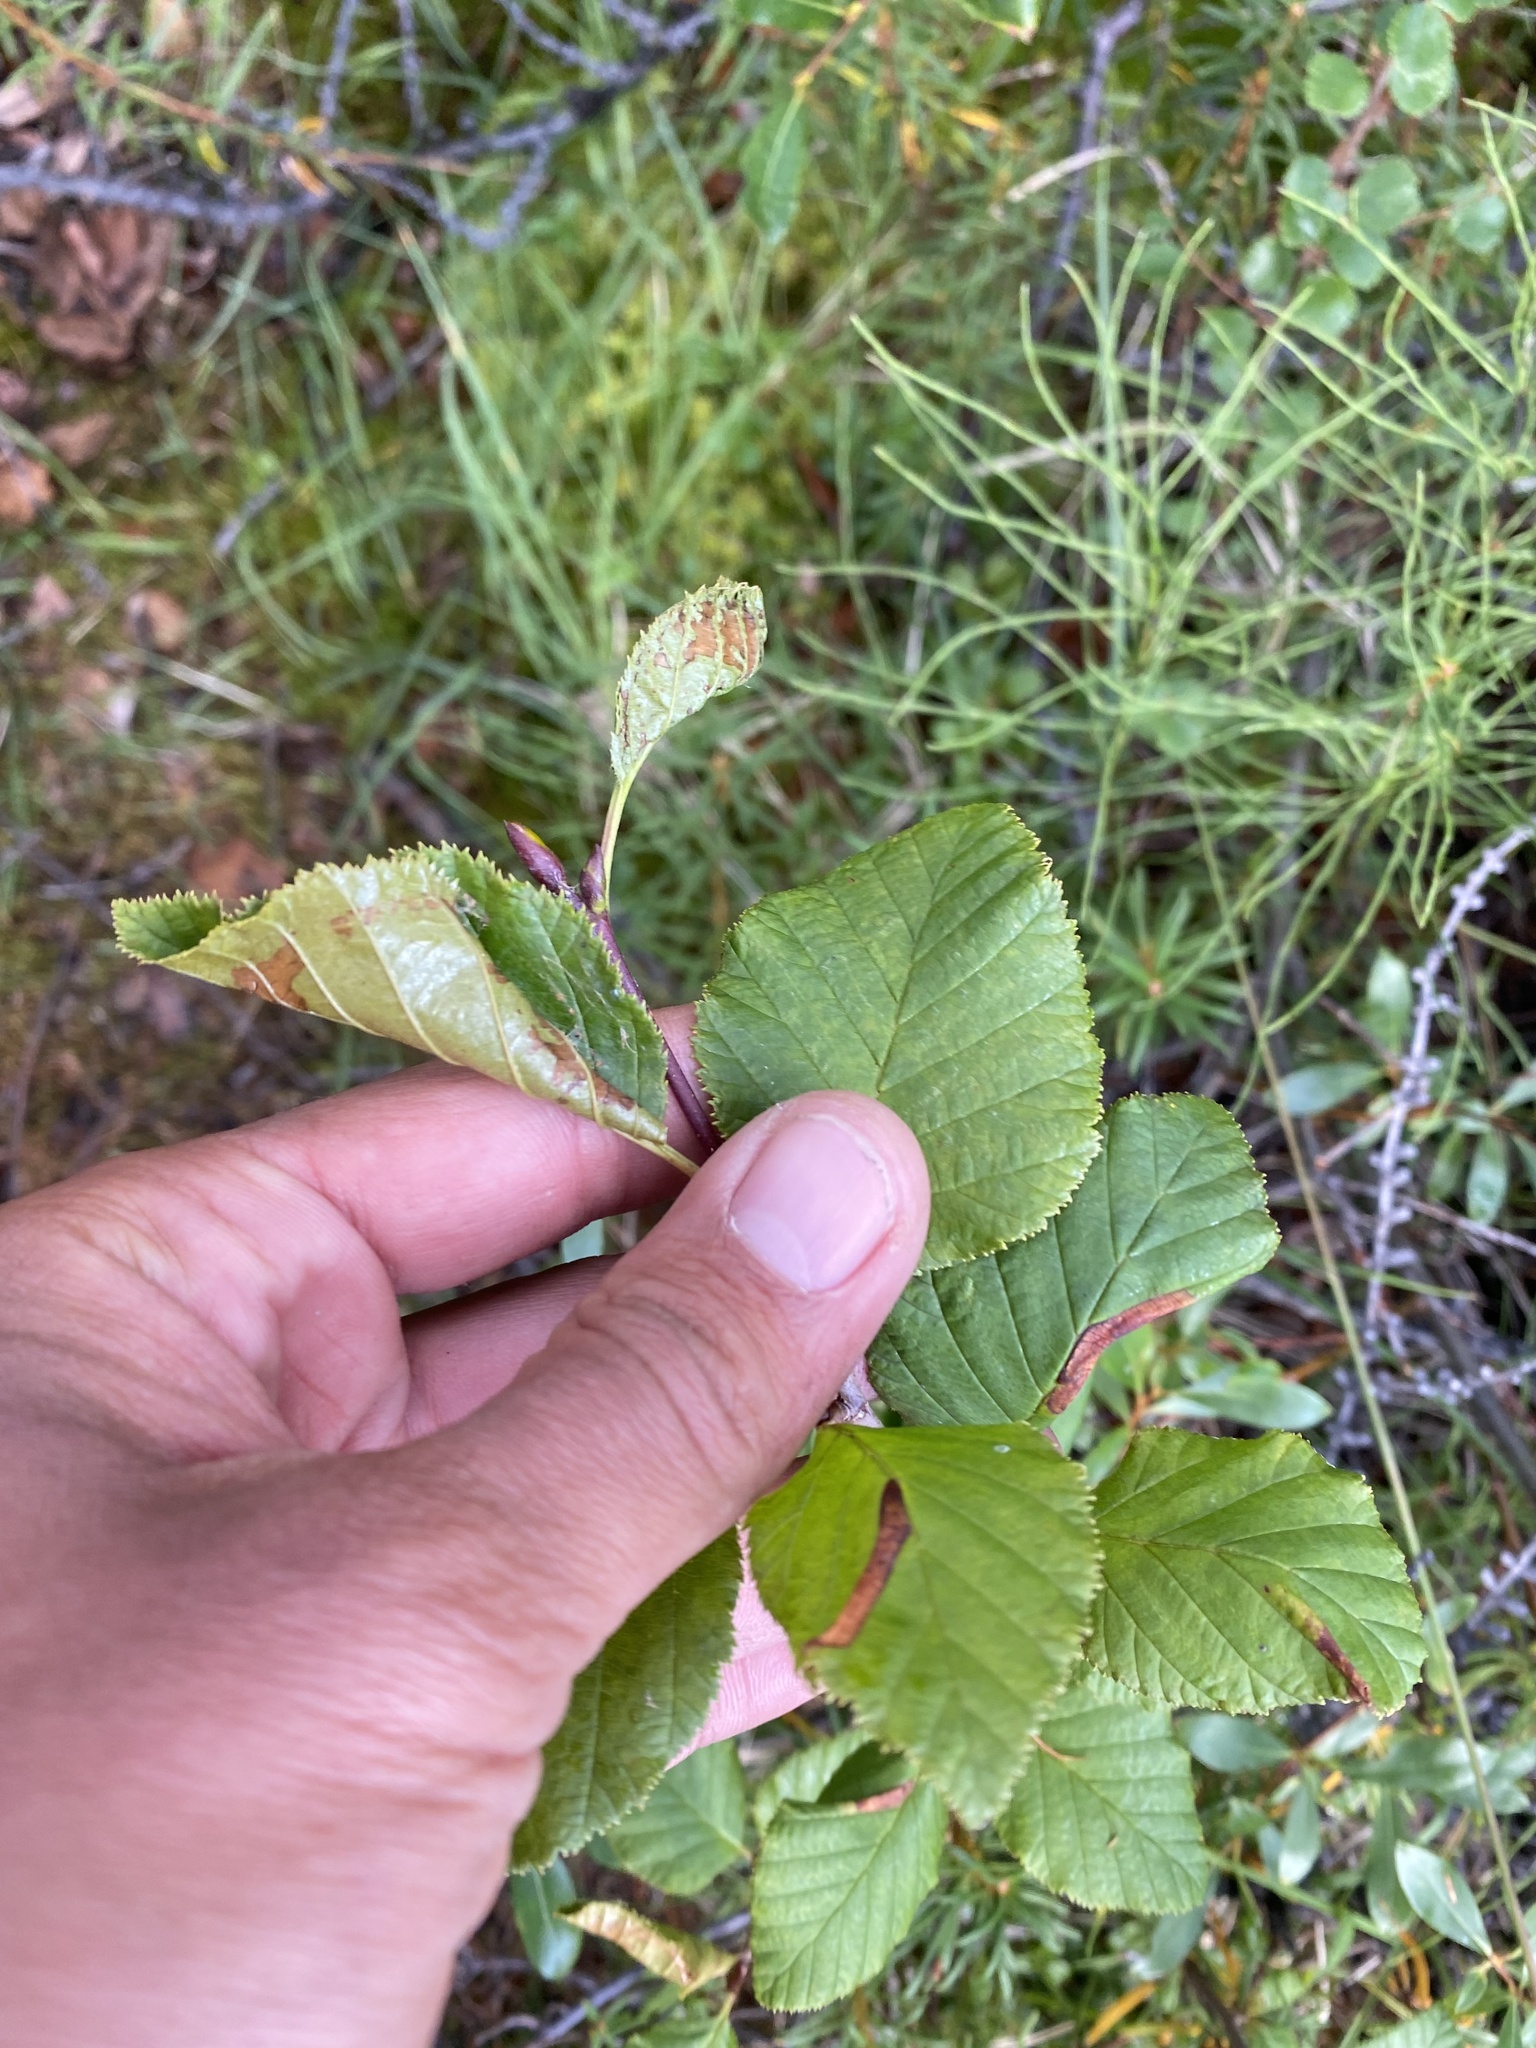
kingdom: Plantae
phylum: Tracheophyta
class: Magnoliopsida
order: Fagales
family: Betulaceae
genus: Alnus
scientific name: Alnus alnobetula
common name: Green alder
